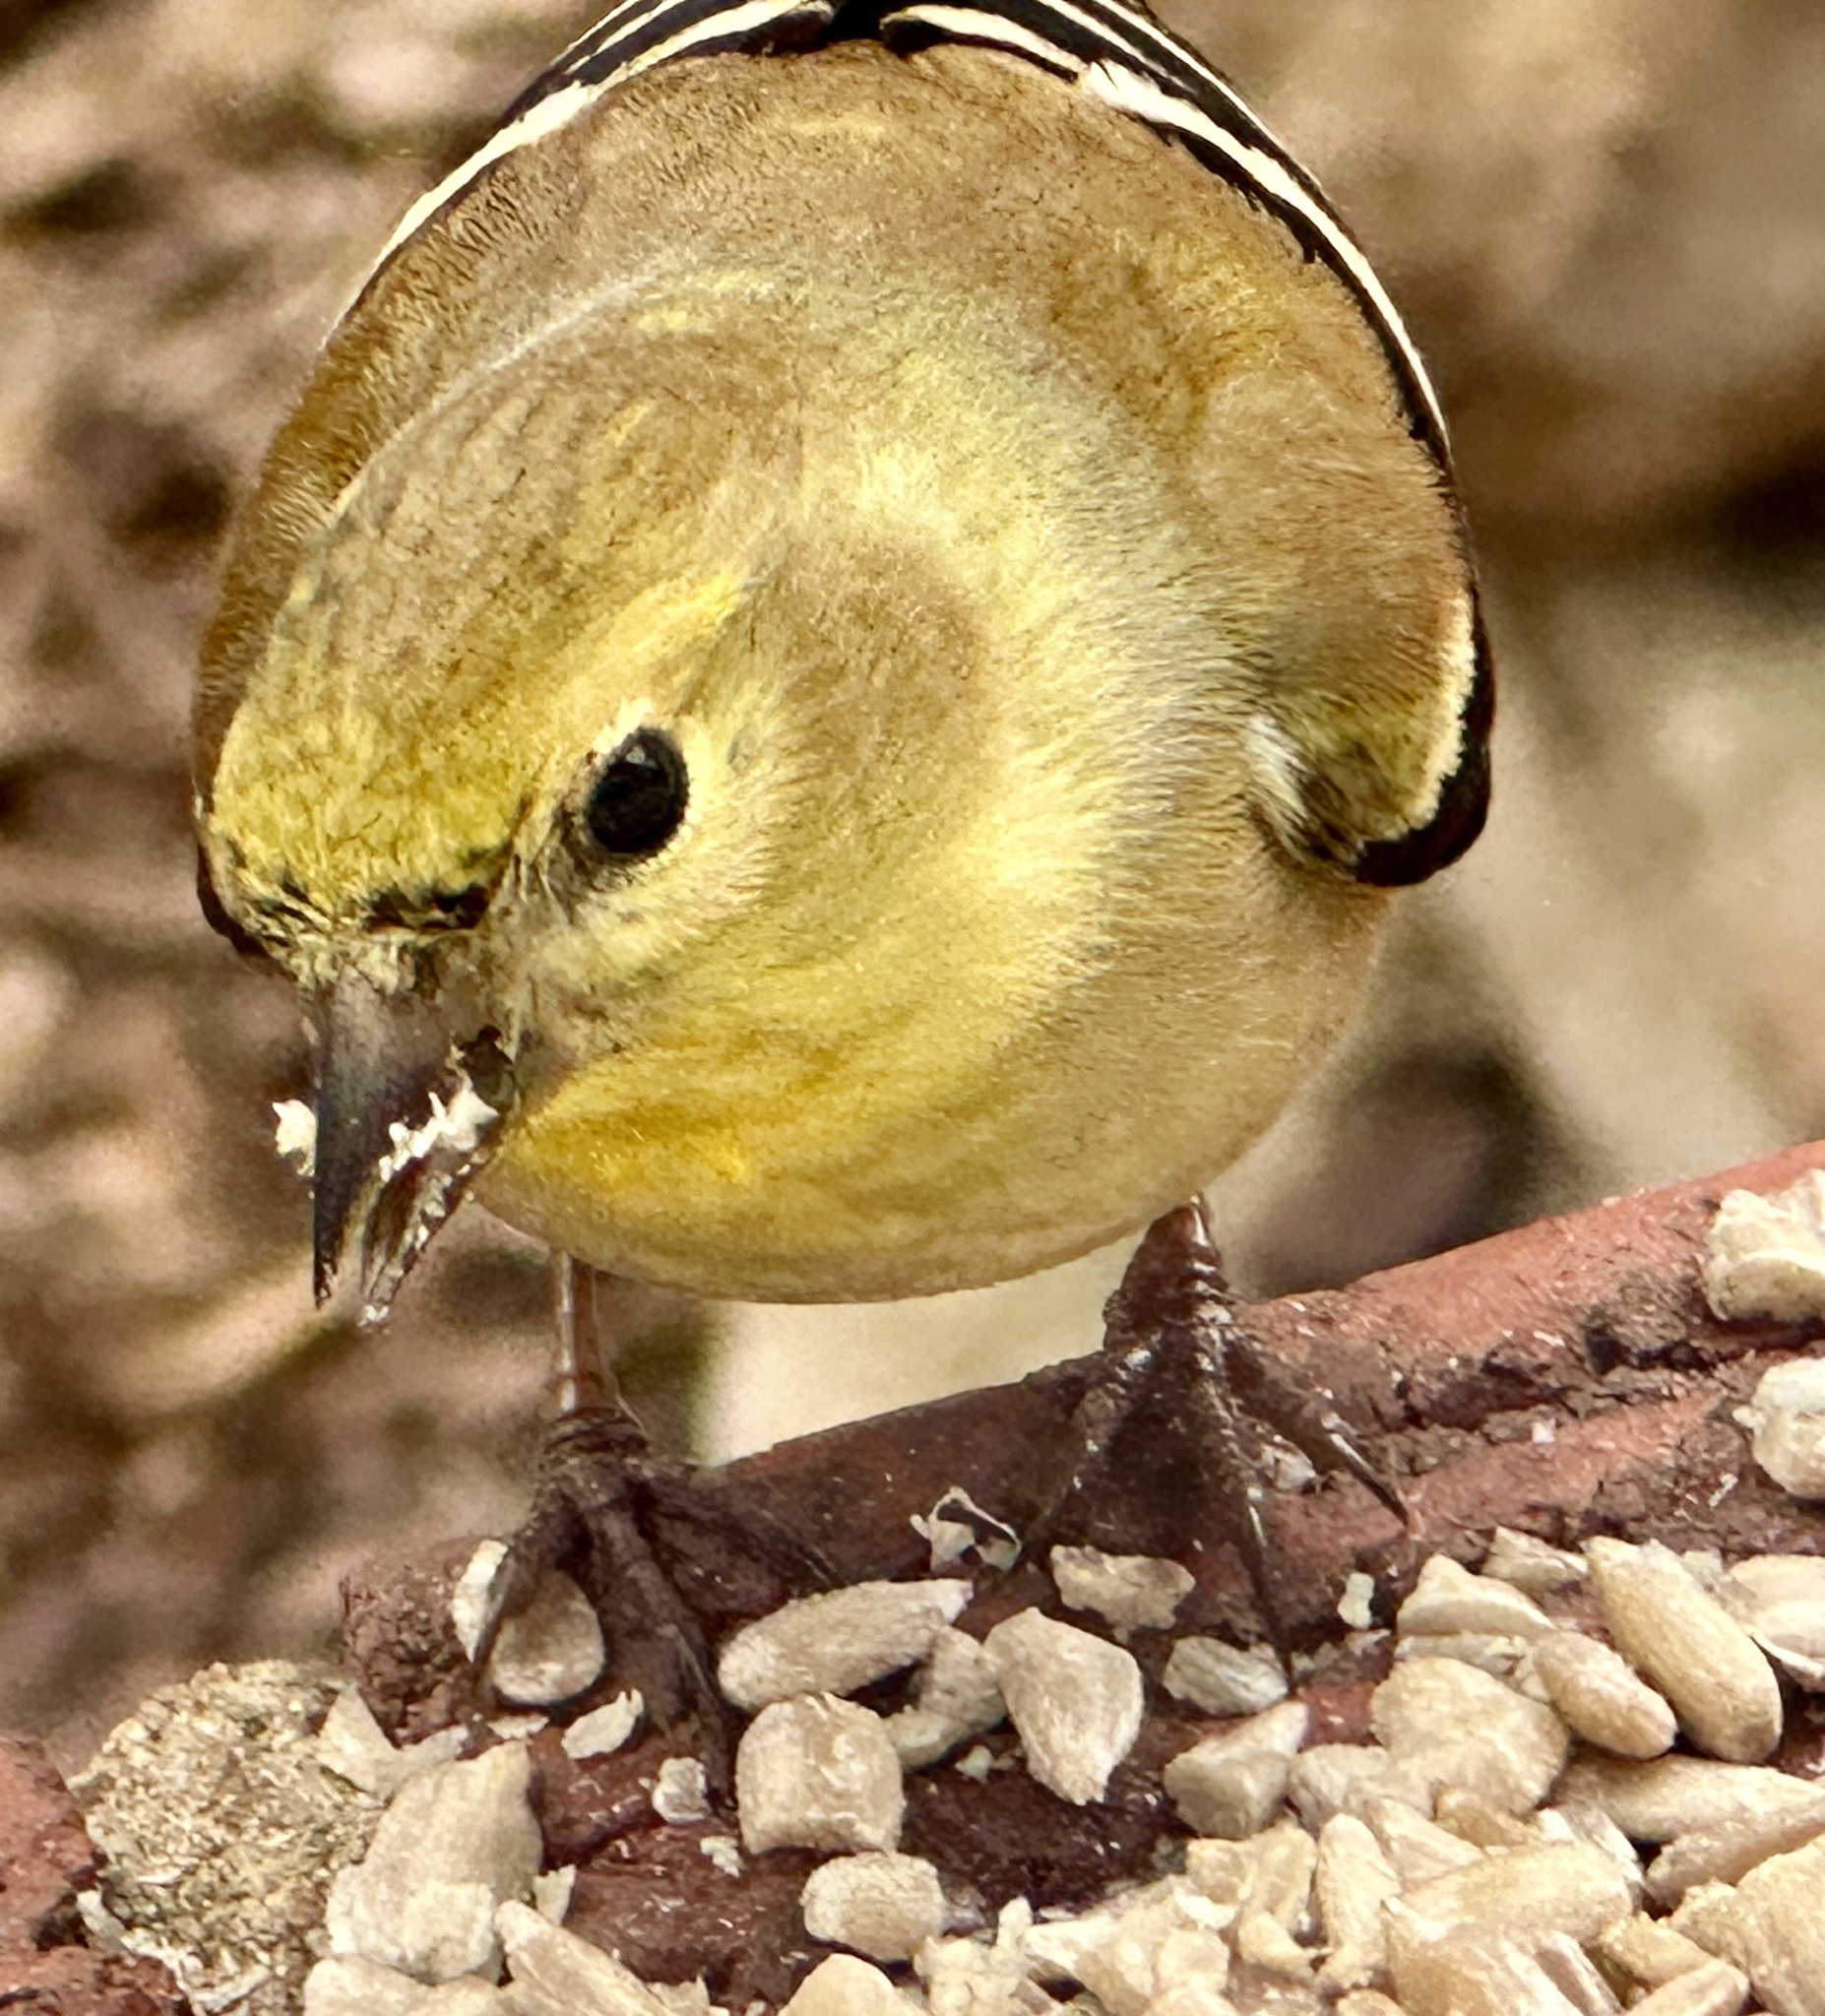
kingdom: Animalia
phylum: Chordata
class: Aves
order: Passeriformes
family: Fringillidae
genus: Spinus
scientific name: Spinus tristis
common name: American goldfinch
